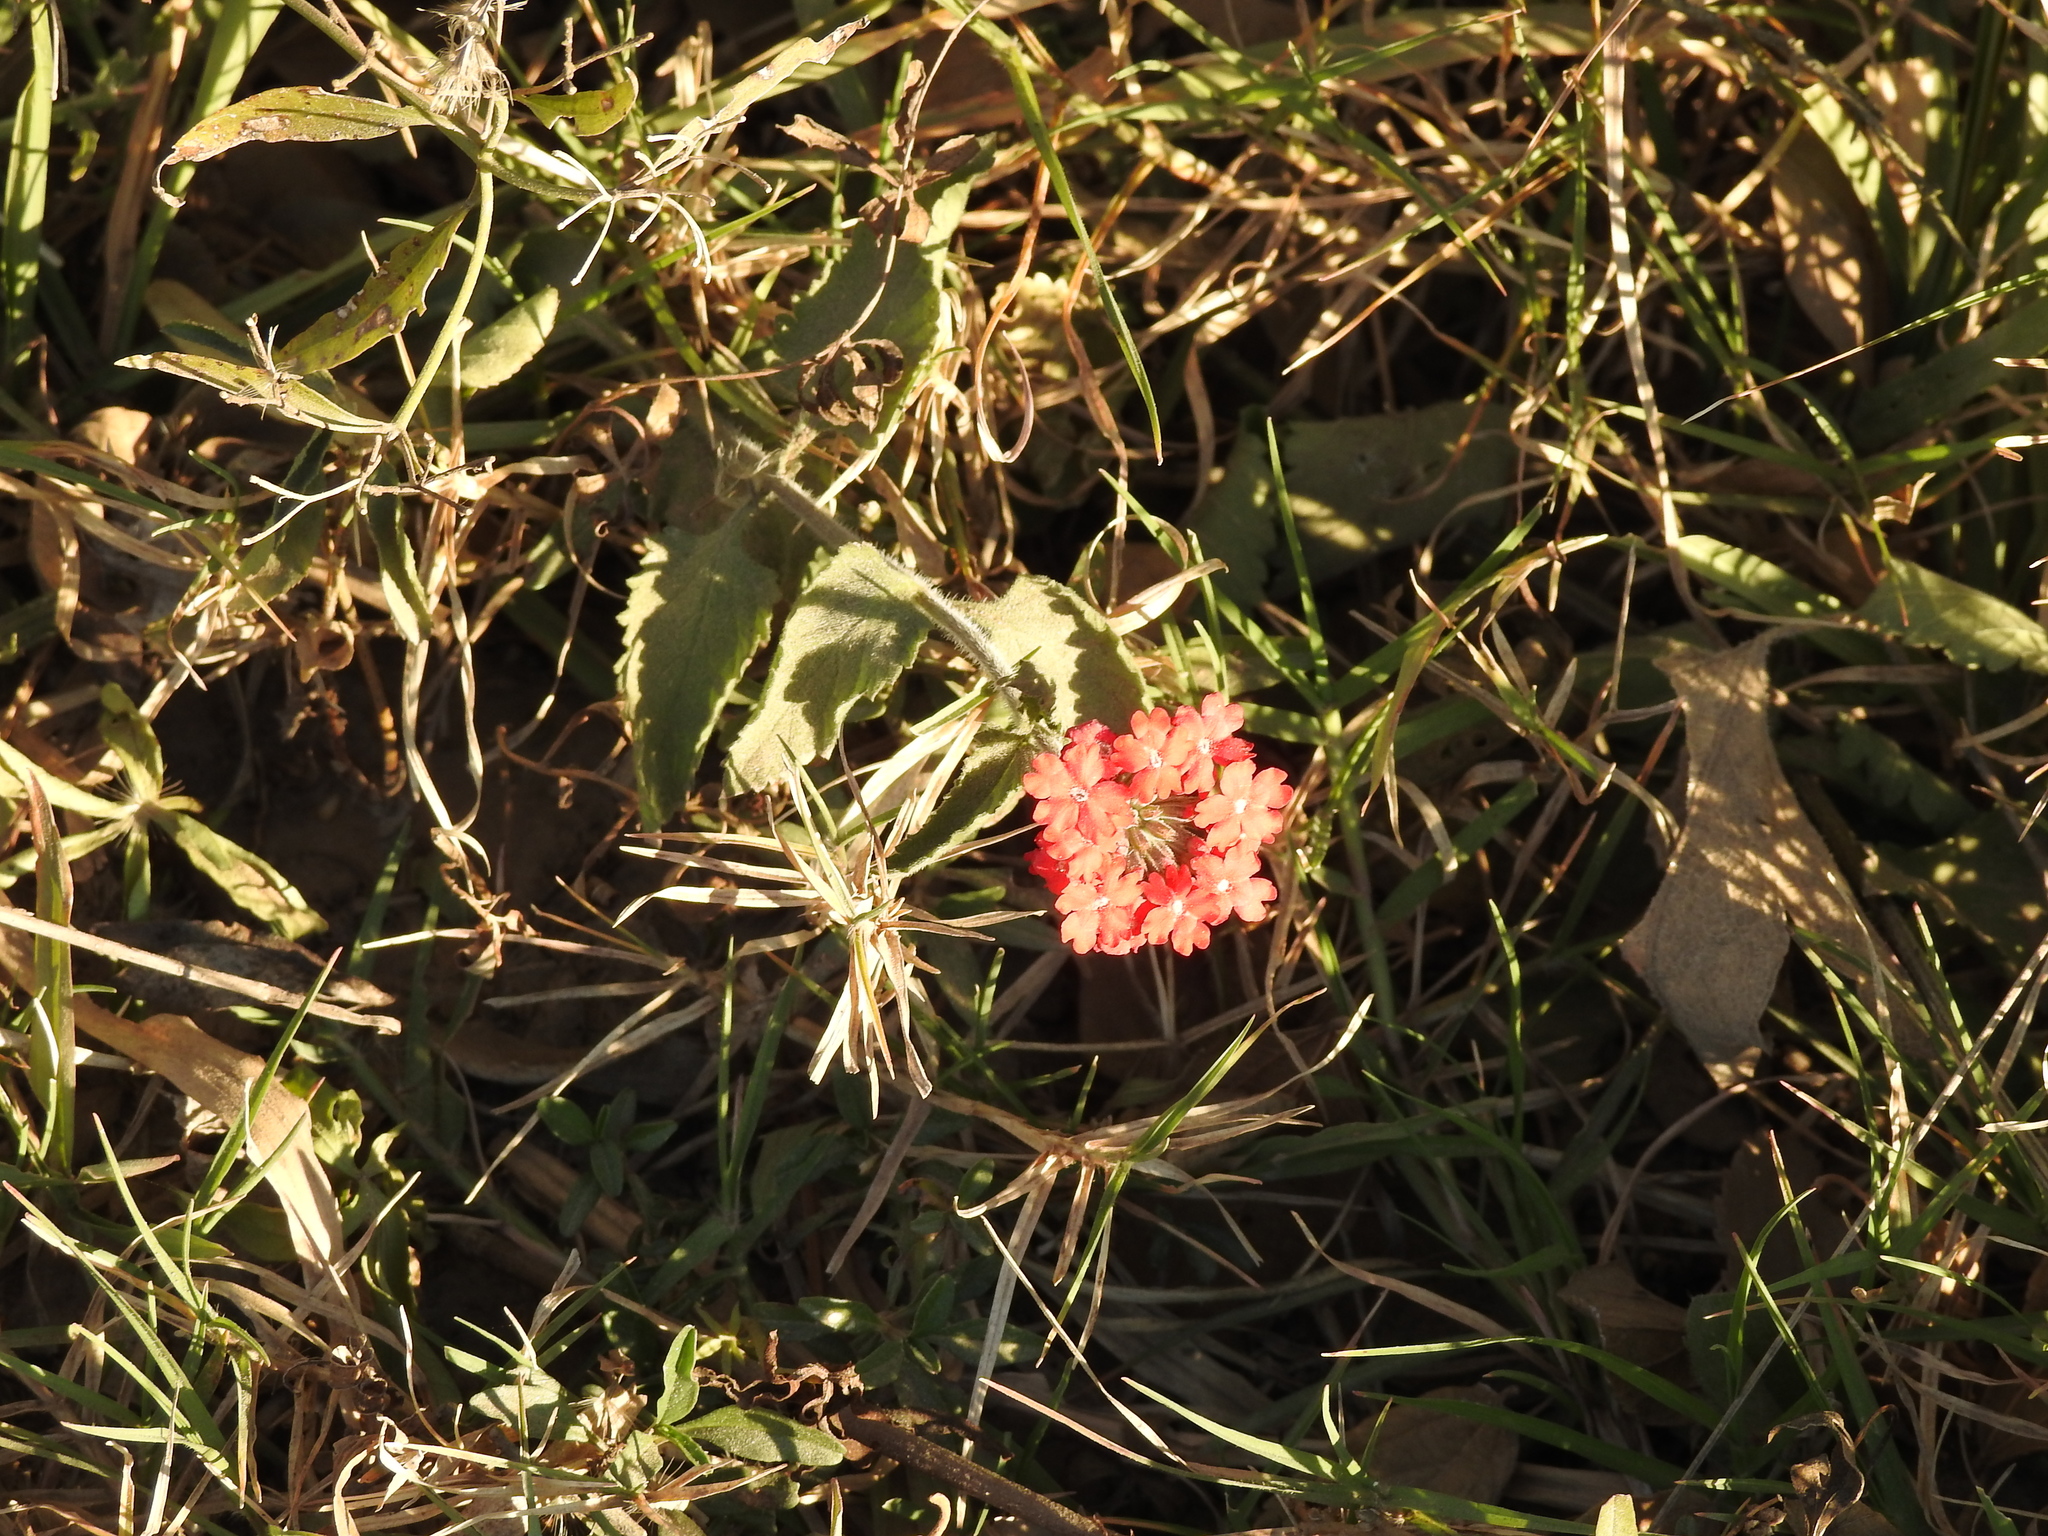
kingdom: Plantae
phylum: Tracheophyta
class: Magnoliopsida
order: Lamiales
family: Verbenaceae
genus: Verbena
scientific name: Verbena peruviana
